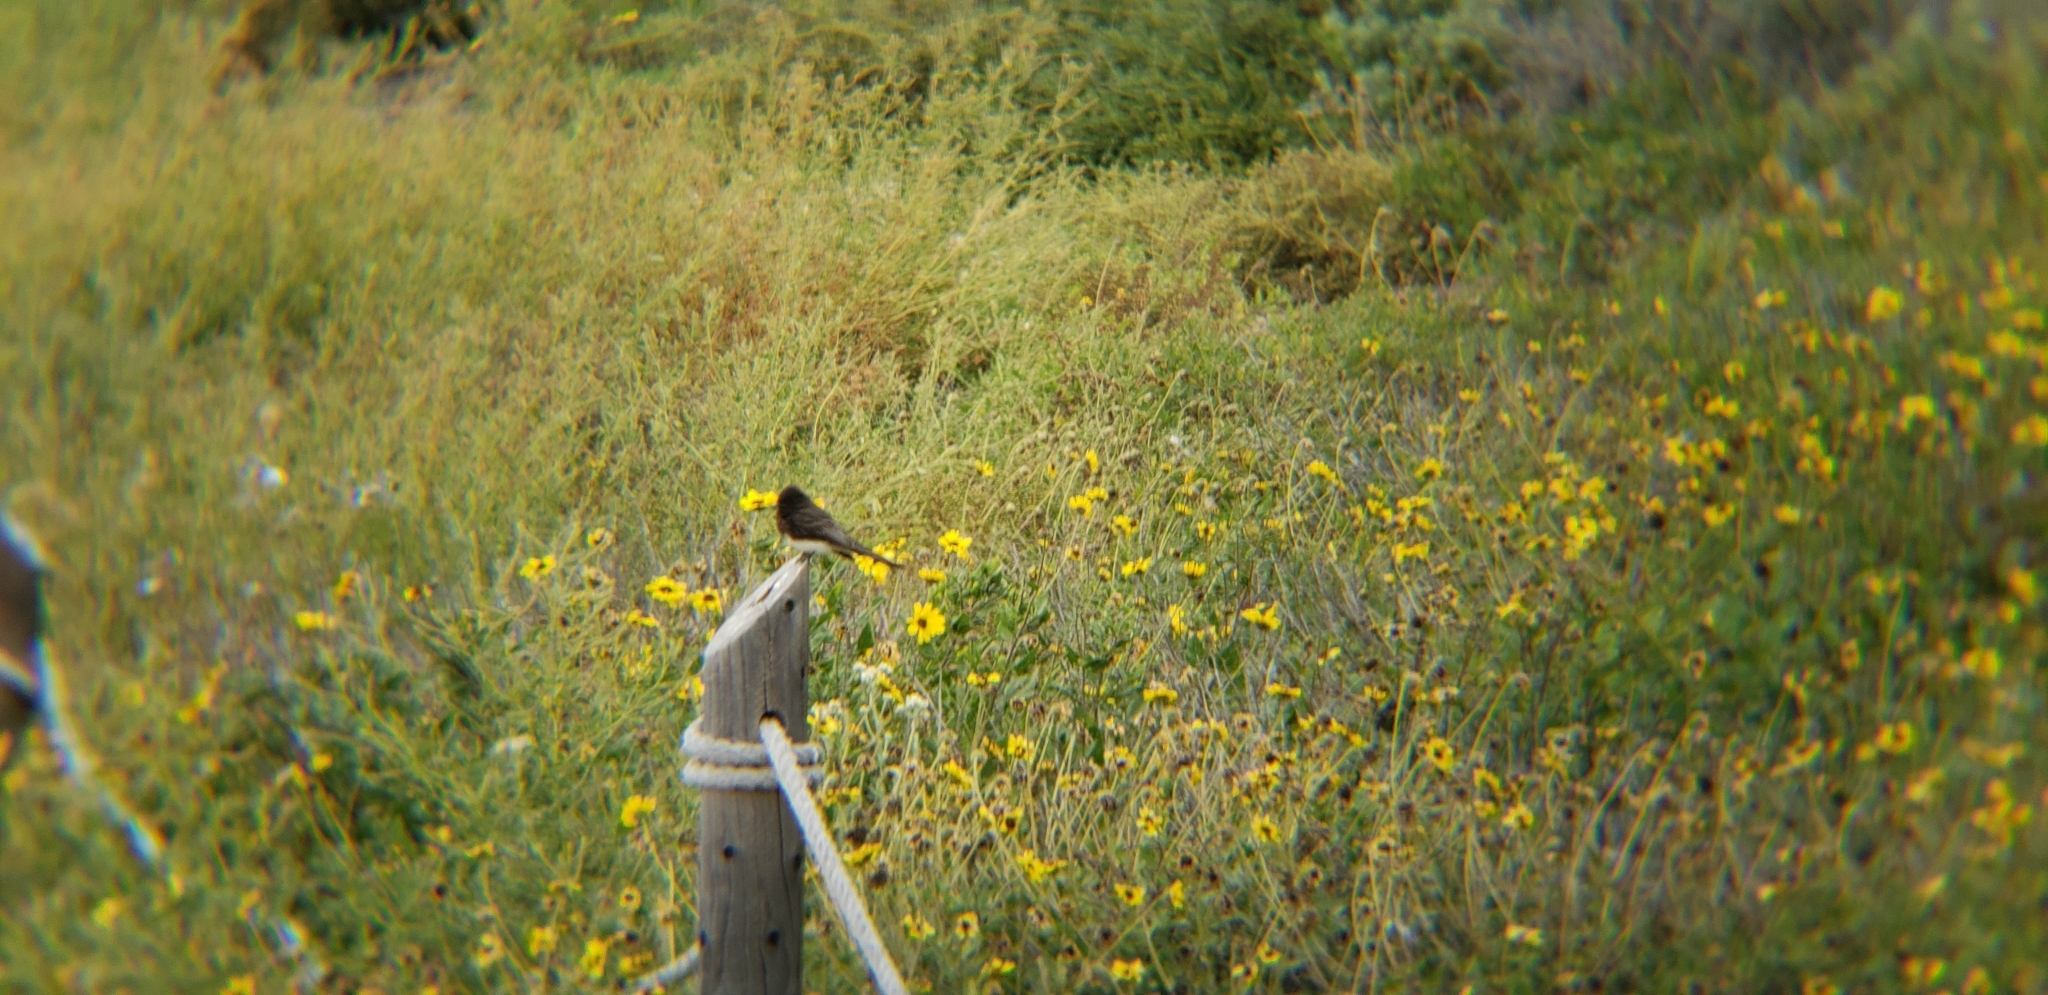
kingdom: Animalia
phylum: Chordata
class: Aves
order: Passeriformes
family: Tyrannidae
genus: Sayornis
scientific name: Sayornis nigricans
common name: Black phoebe
